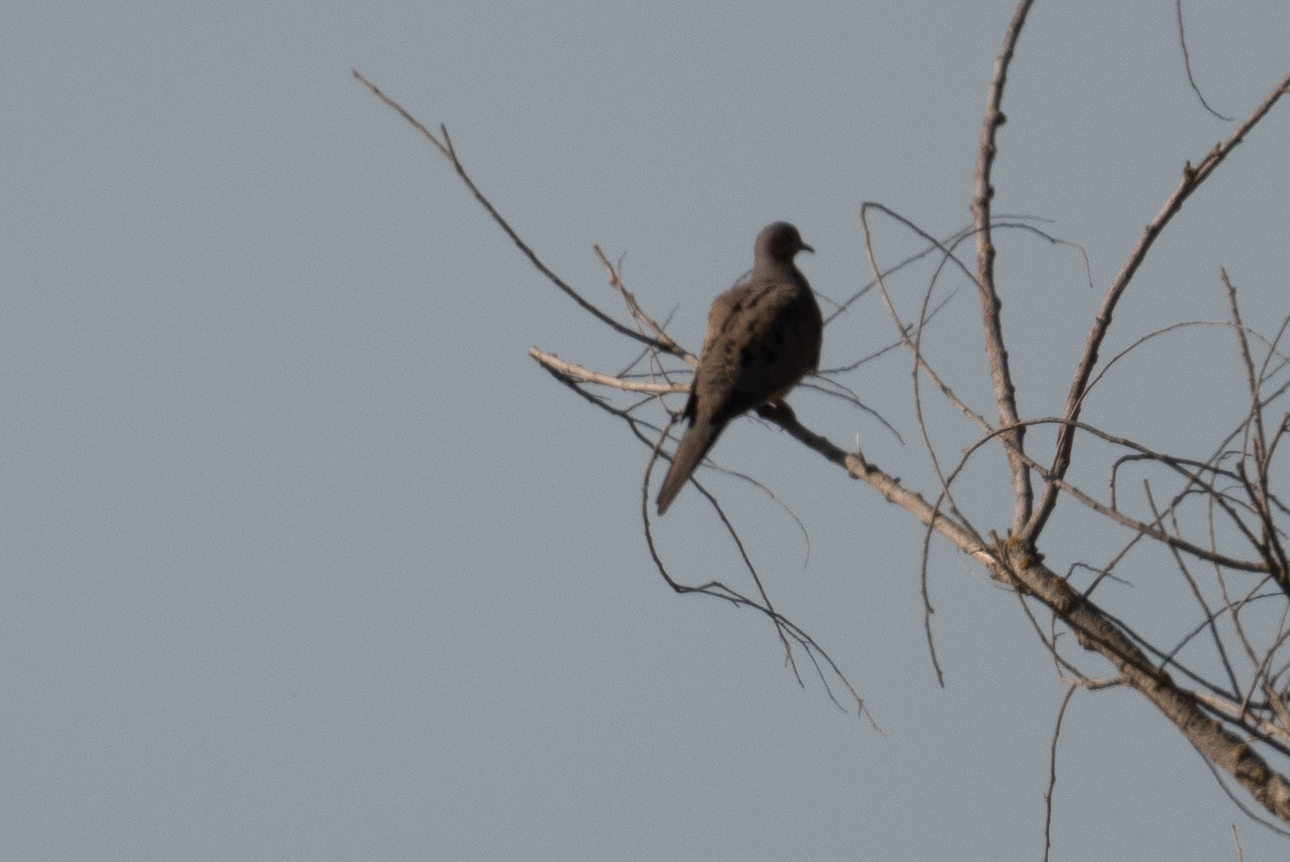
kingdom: Animalia
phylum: Chordata
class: Aves
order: Columbiformes
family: Columbidae
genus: Zenaida
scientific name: Zenaida macroura
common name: Mourning dove
